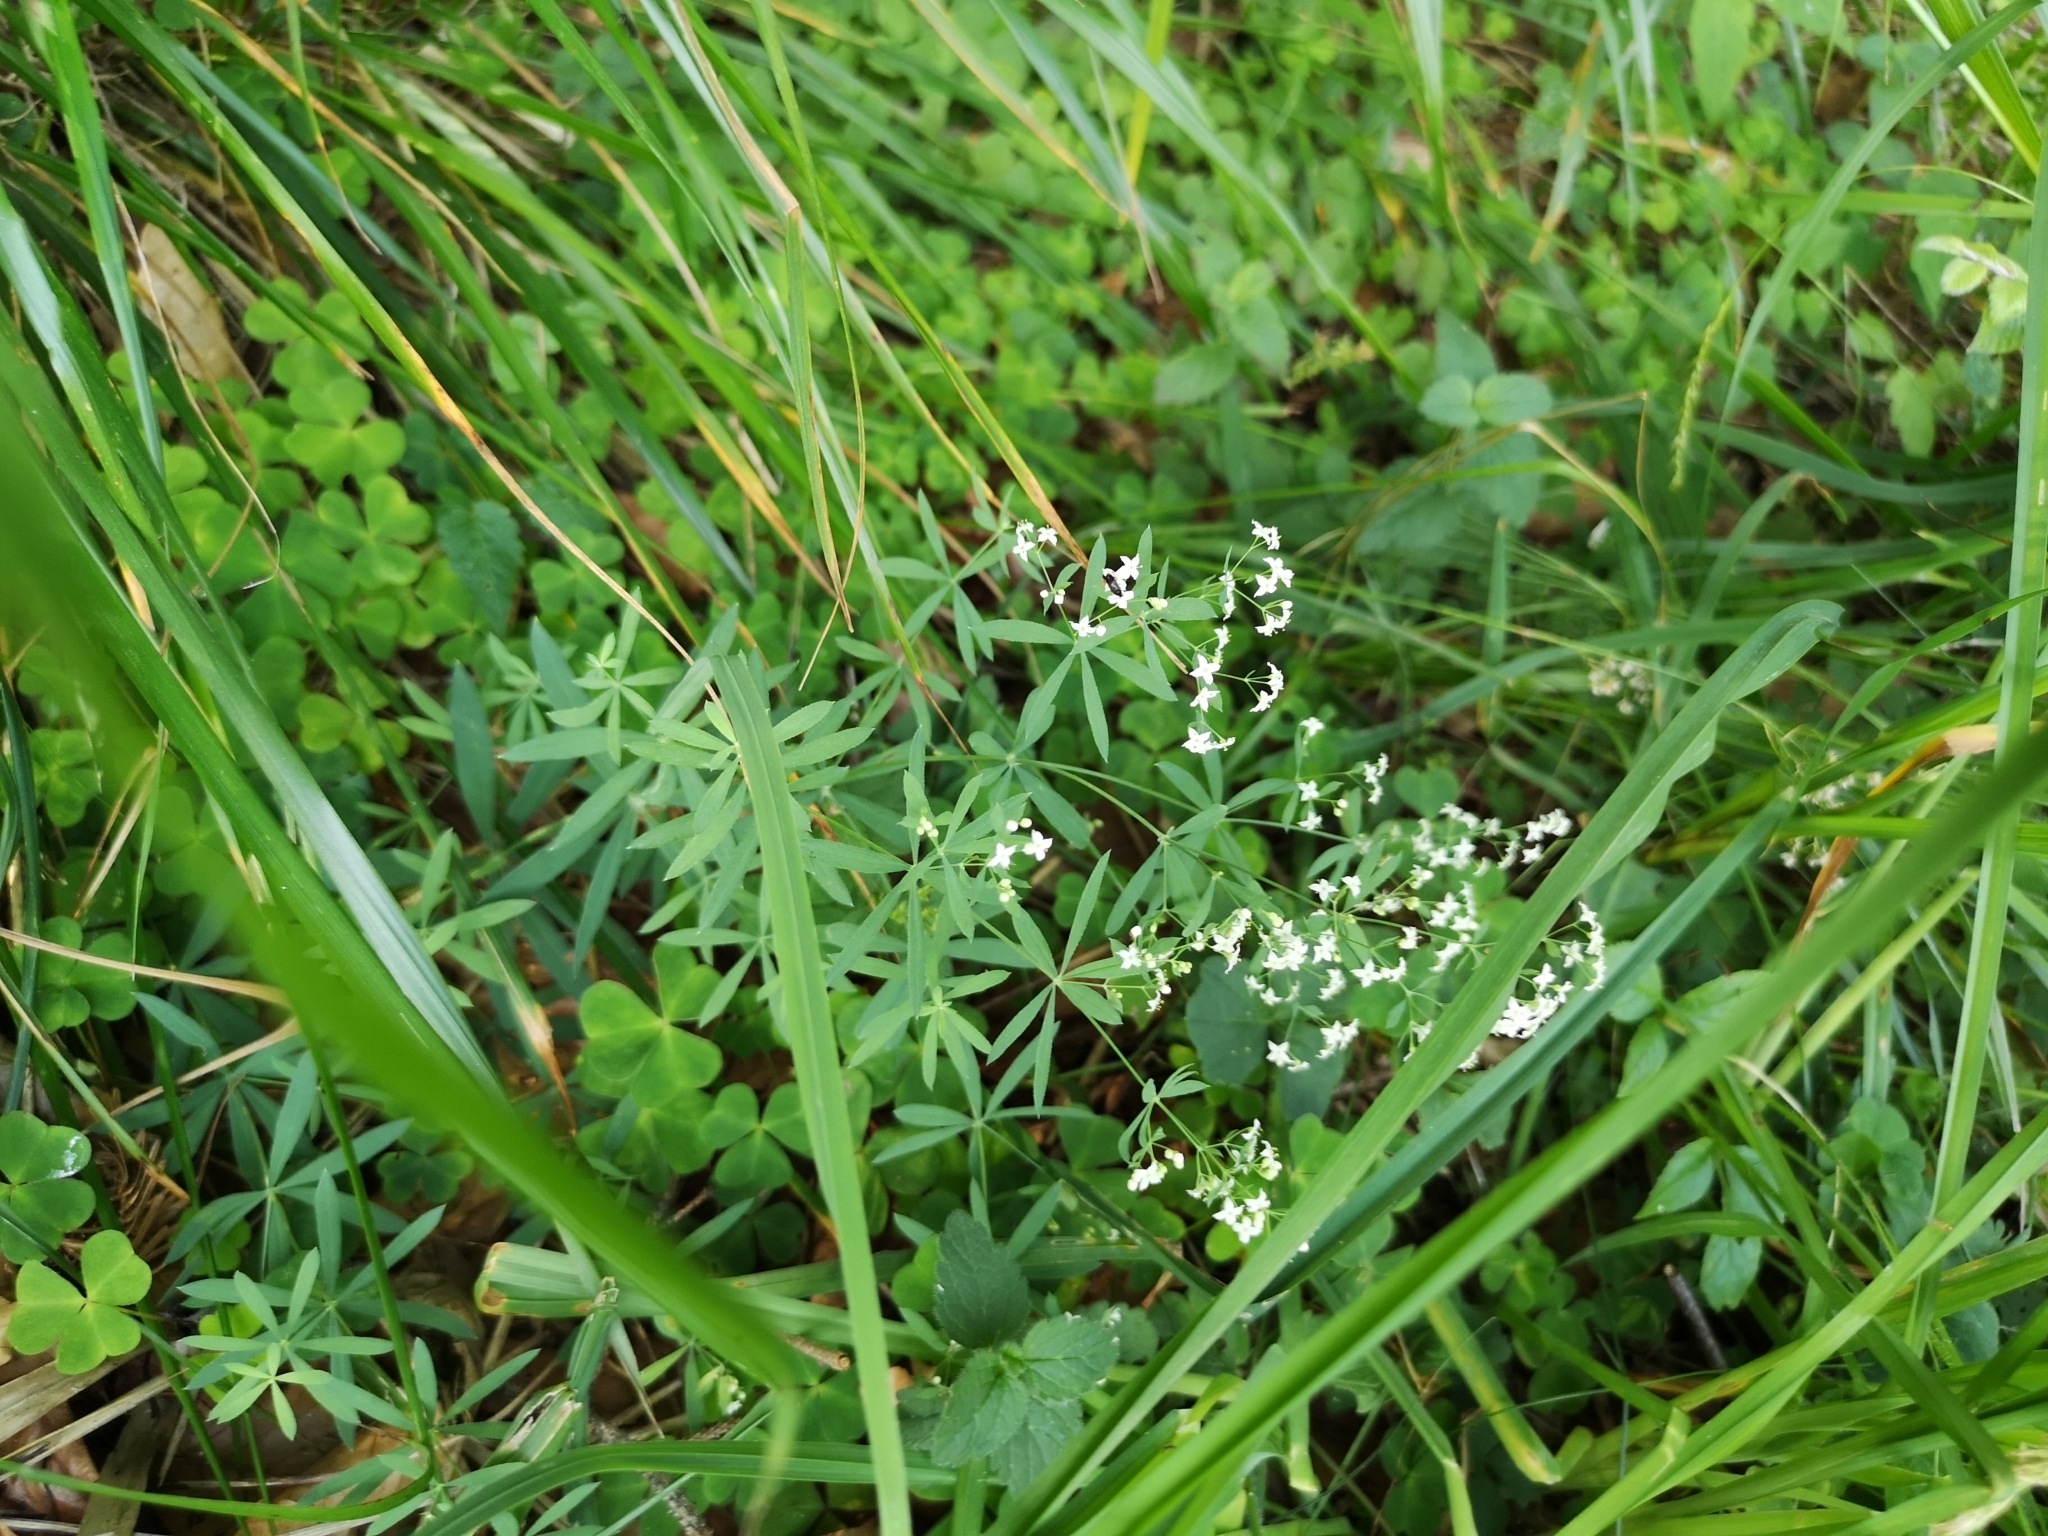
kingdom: Plantae
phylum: Tracheophyta
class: Magnoliopsida
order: Gentianales
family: Rubiaceae
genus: Galium
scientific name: Galium intermedium
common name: Bedstraw
